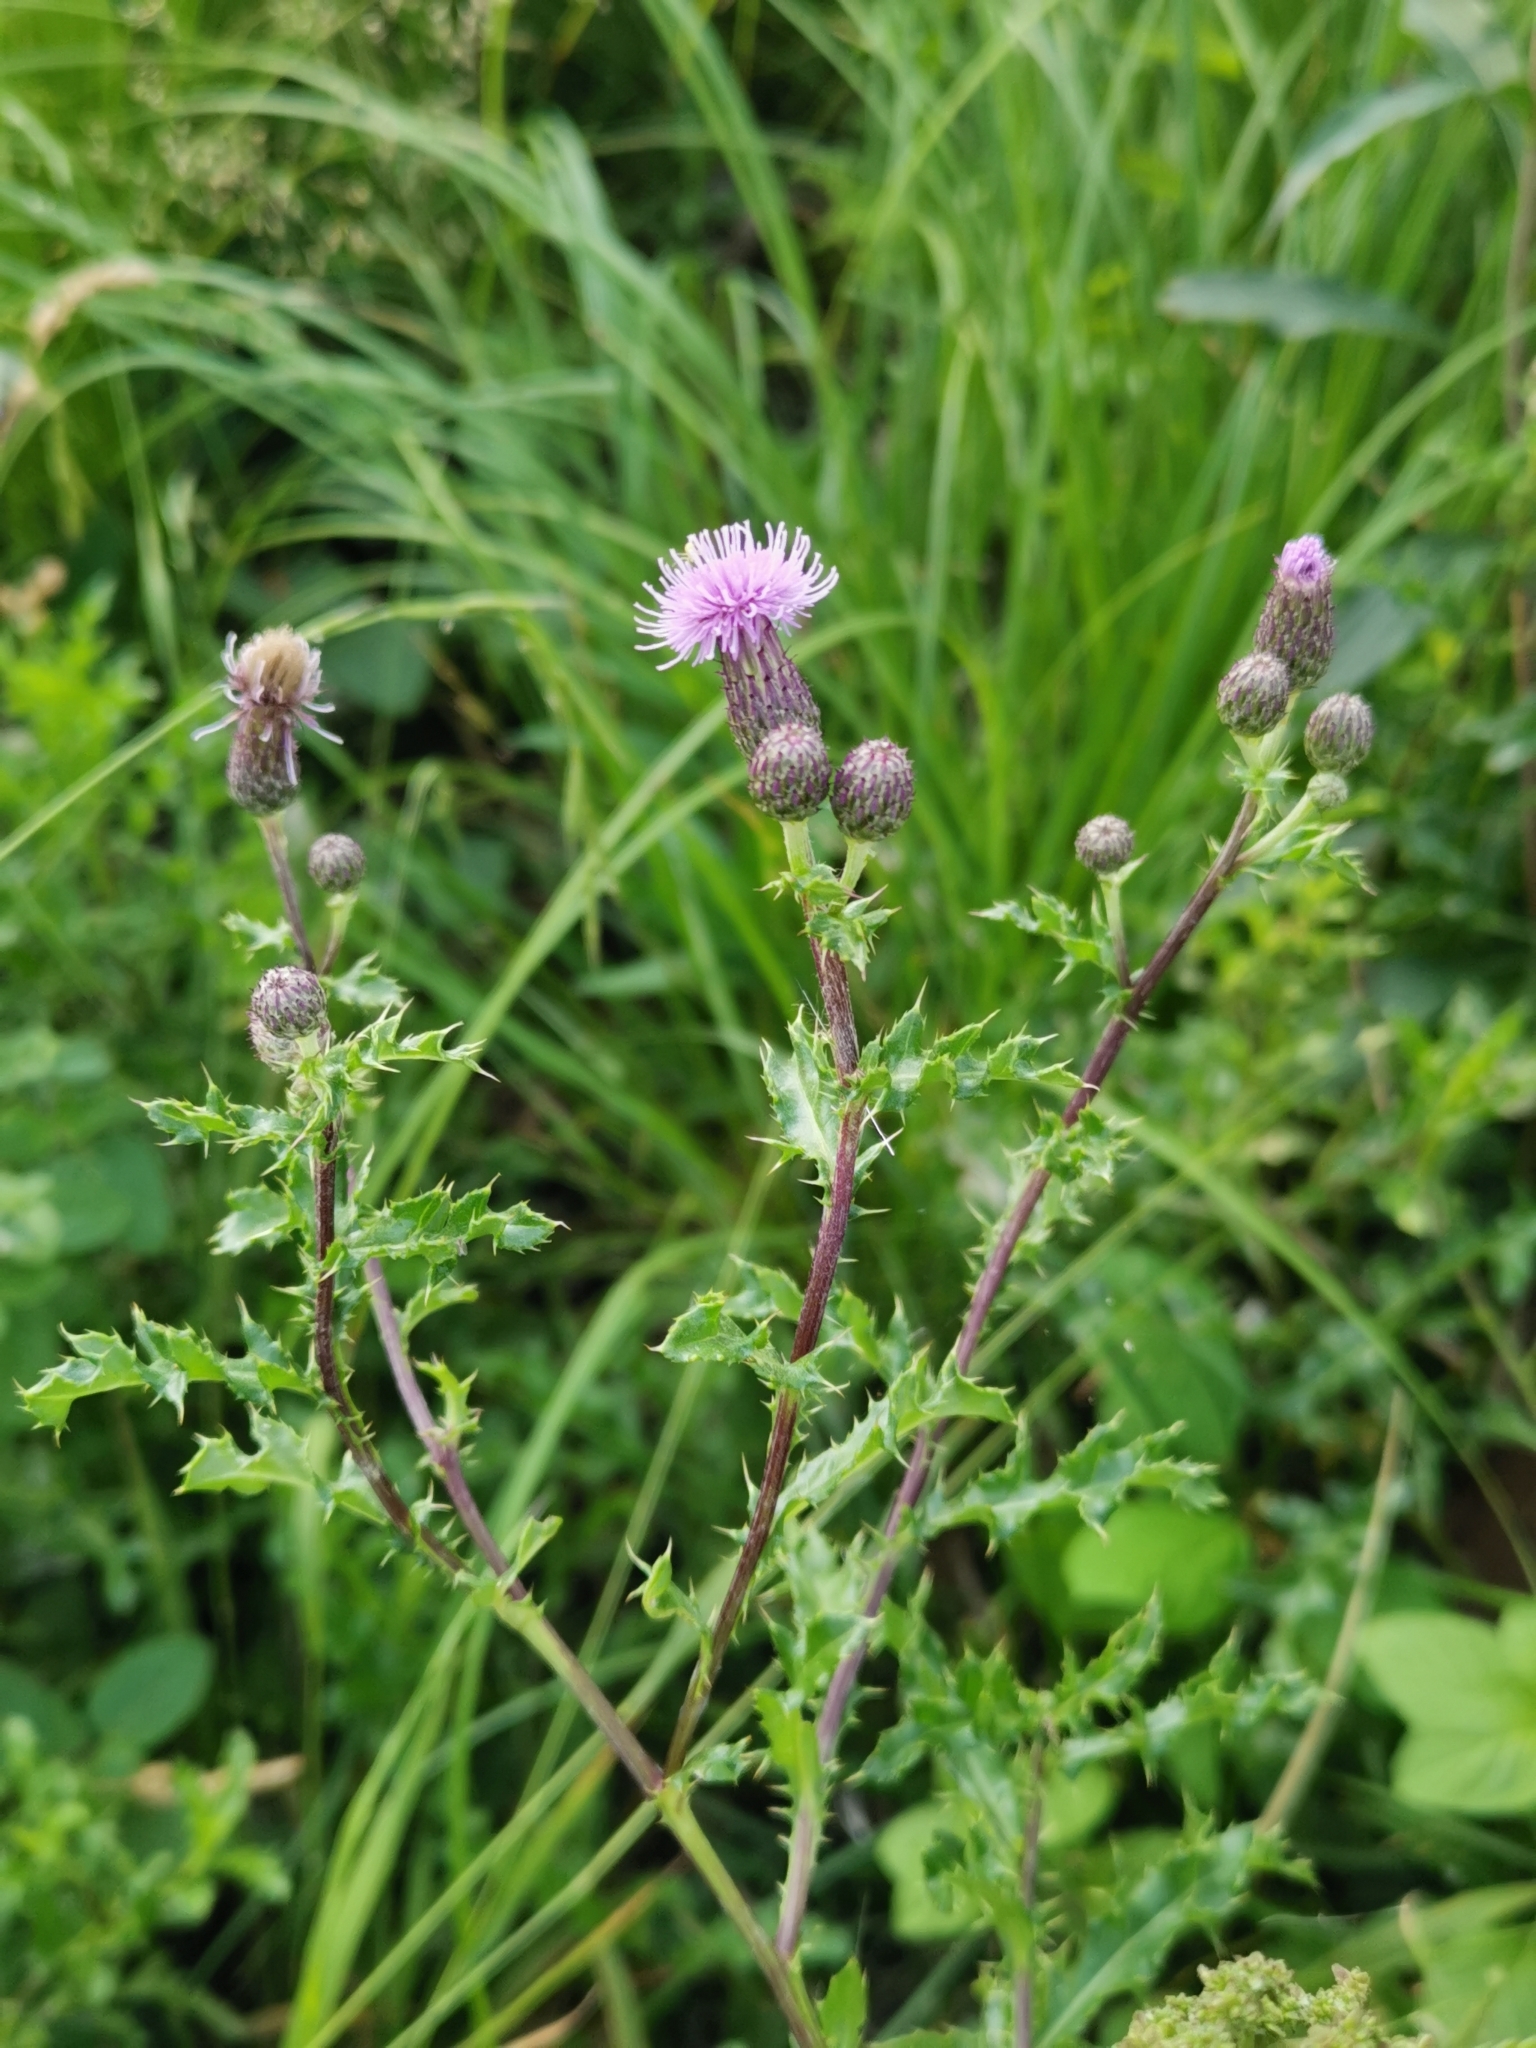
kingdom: Plantae
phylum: Tracheophyta
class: Magnoliopsida
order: Asterales
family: Asteraceae
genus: Cirsium
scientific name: Cirsium arvense
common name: Creeping thistle
